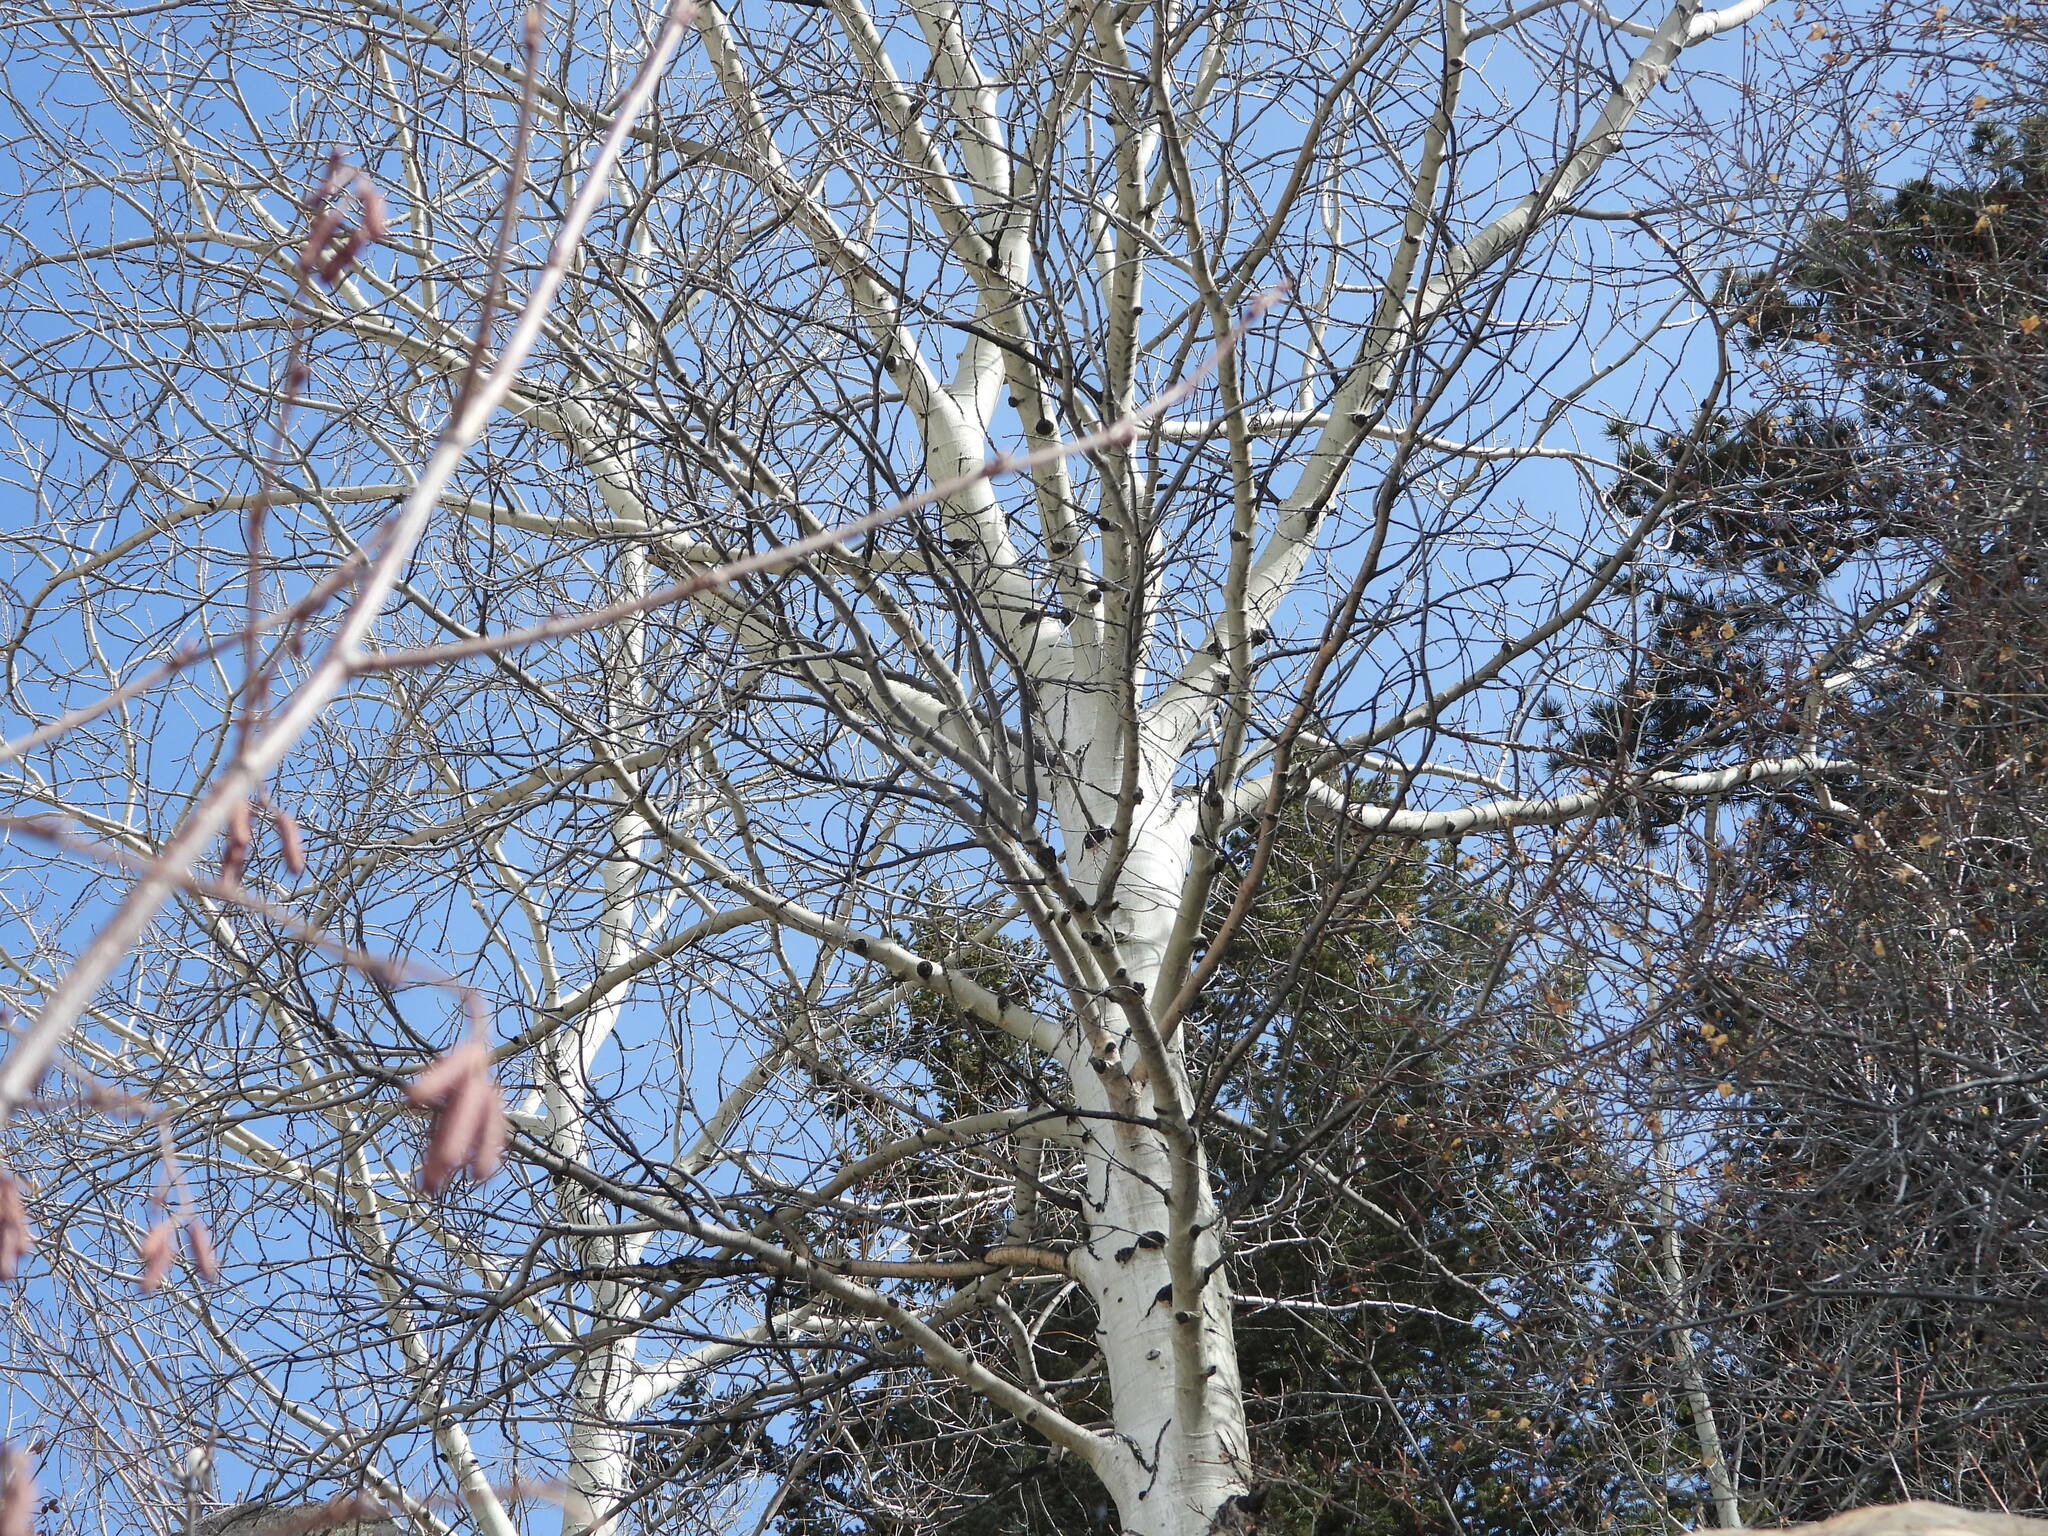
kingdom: Plantae
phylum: Tracheophyta
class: Magnoliopsida
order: Malpighiales
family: Salicaceae
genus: Populus
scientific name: Populus tremuloides
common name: Quaking aspen
